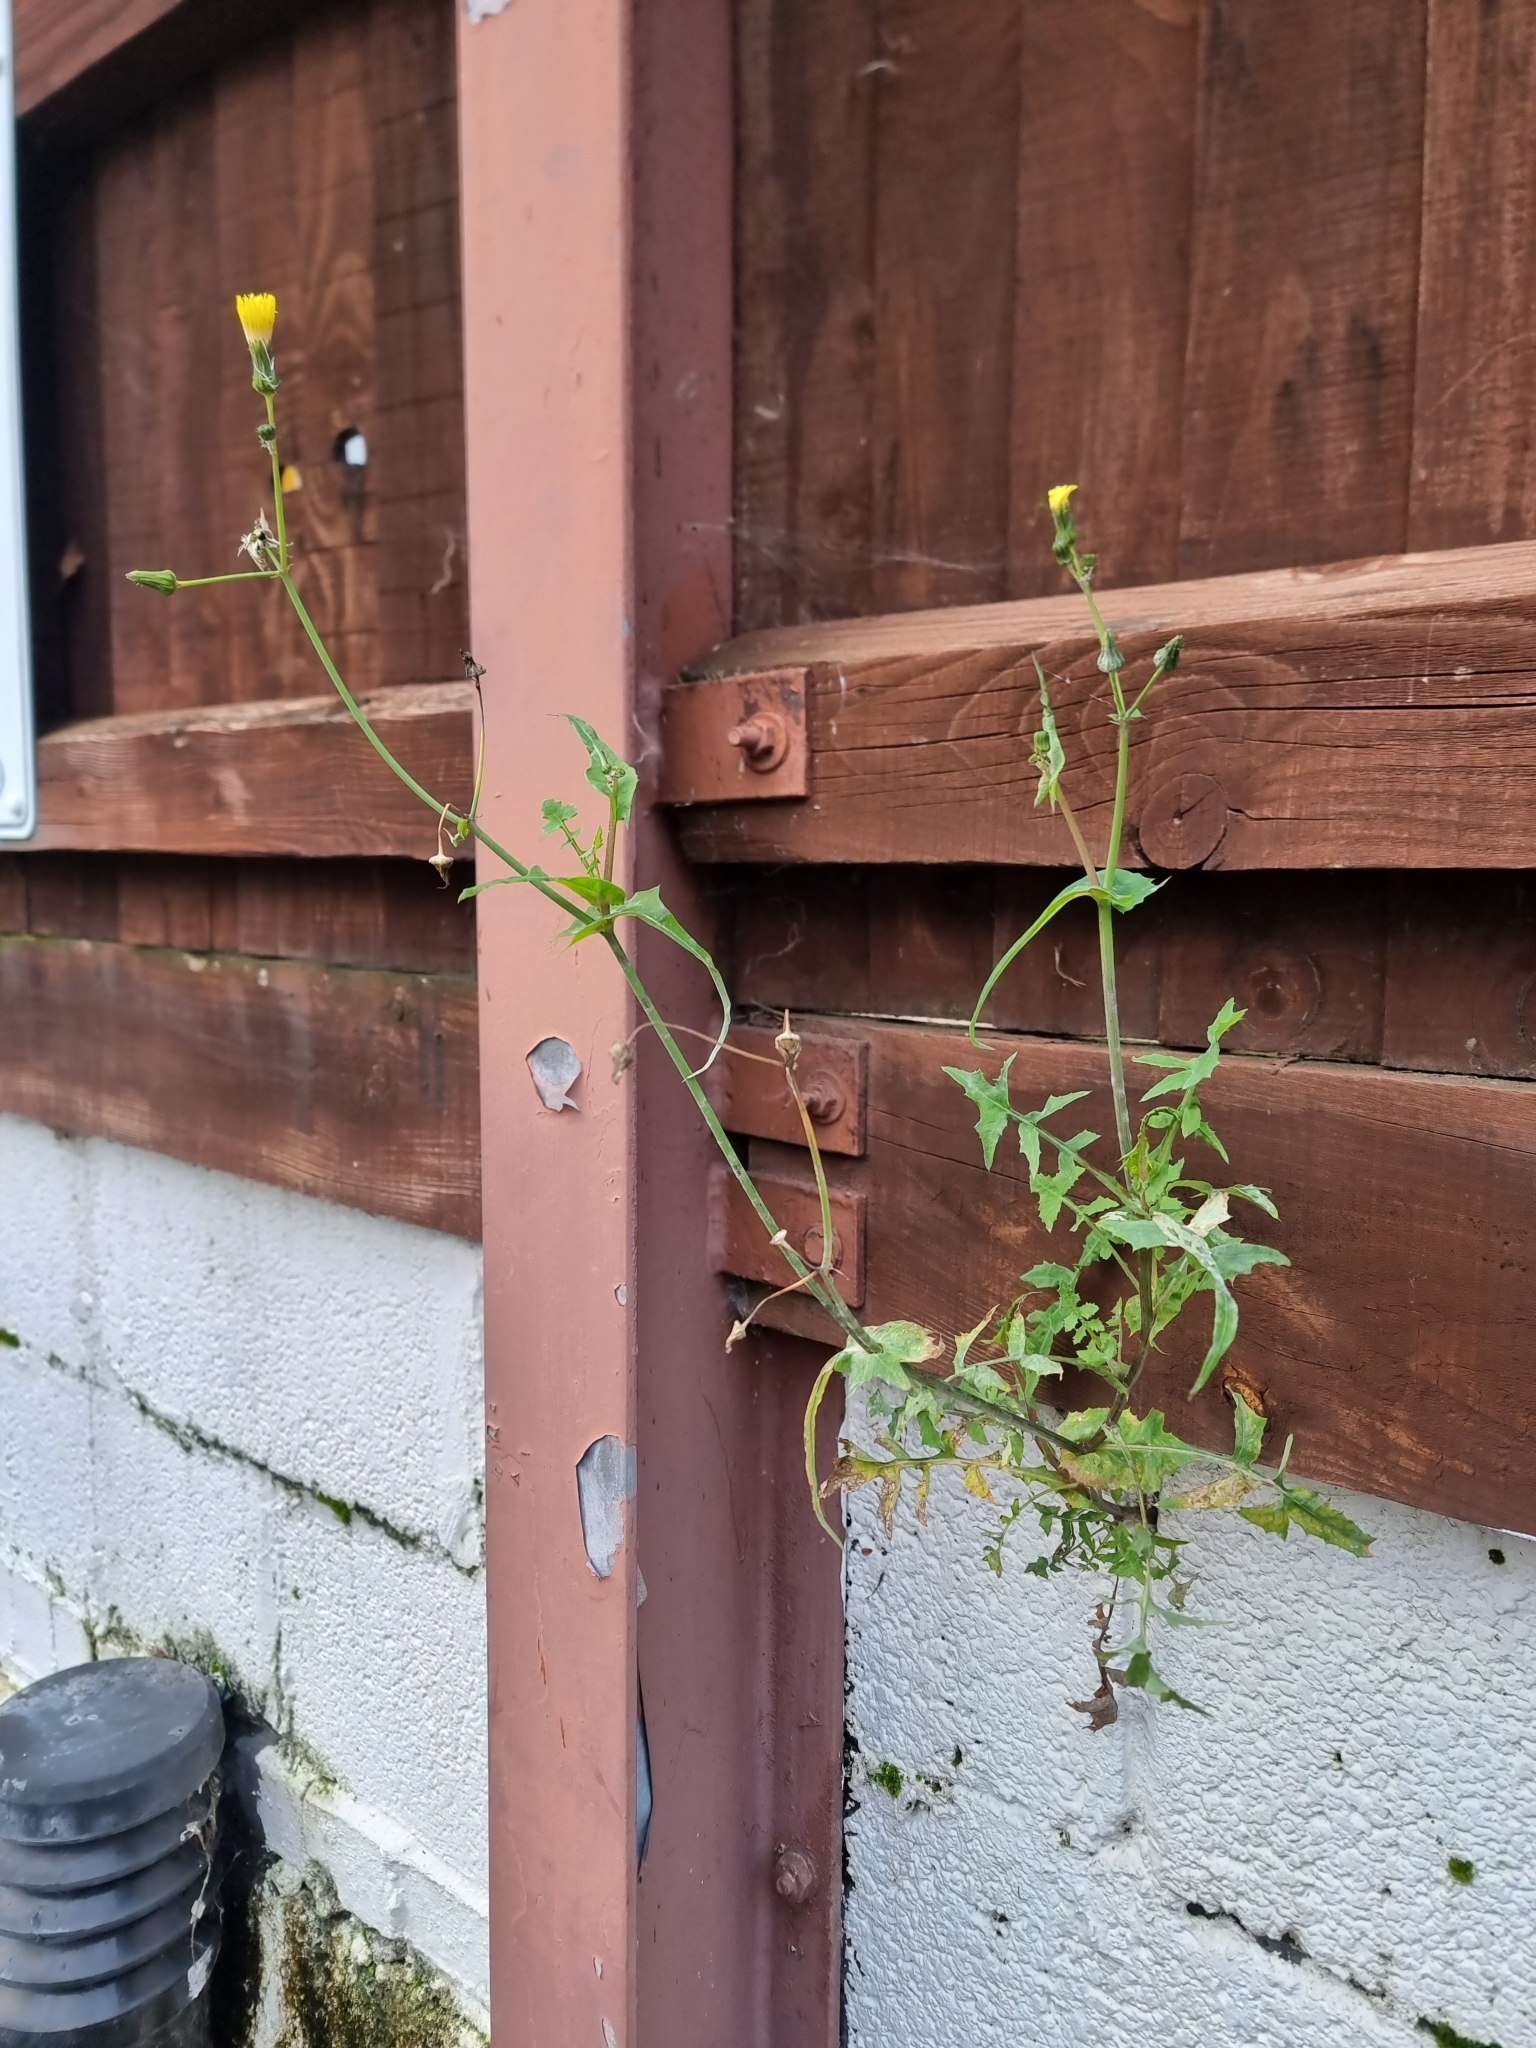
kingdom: Plantae
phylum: Tracheophyta
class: Magnoliopsida
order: Asterales
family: Asteraceae
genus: Sonchus
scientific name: Sonchus oleraceus
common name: Common sowthistle
